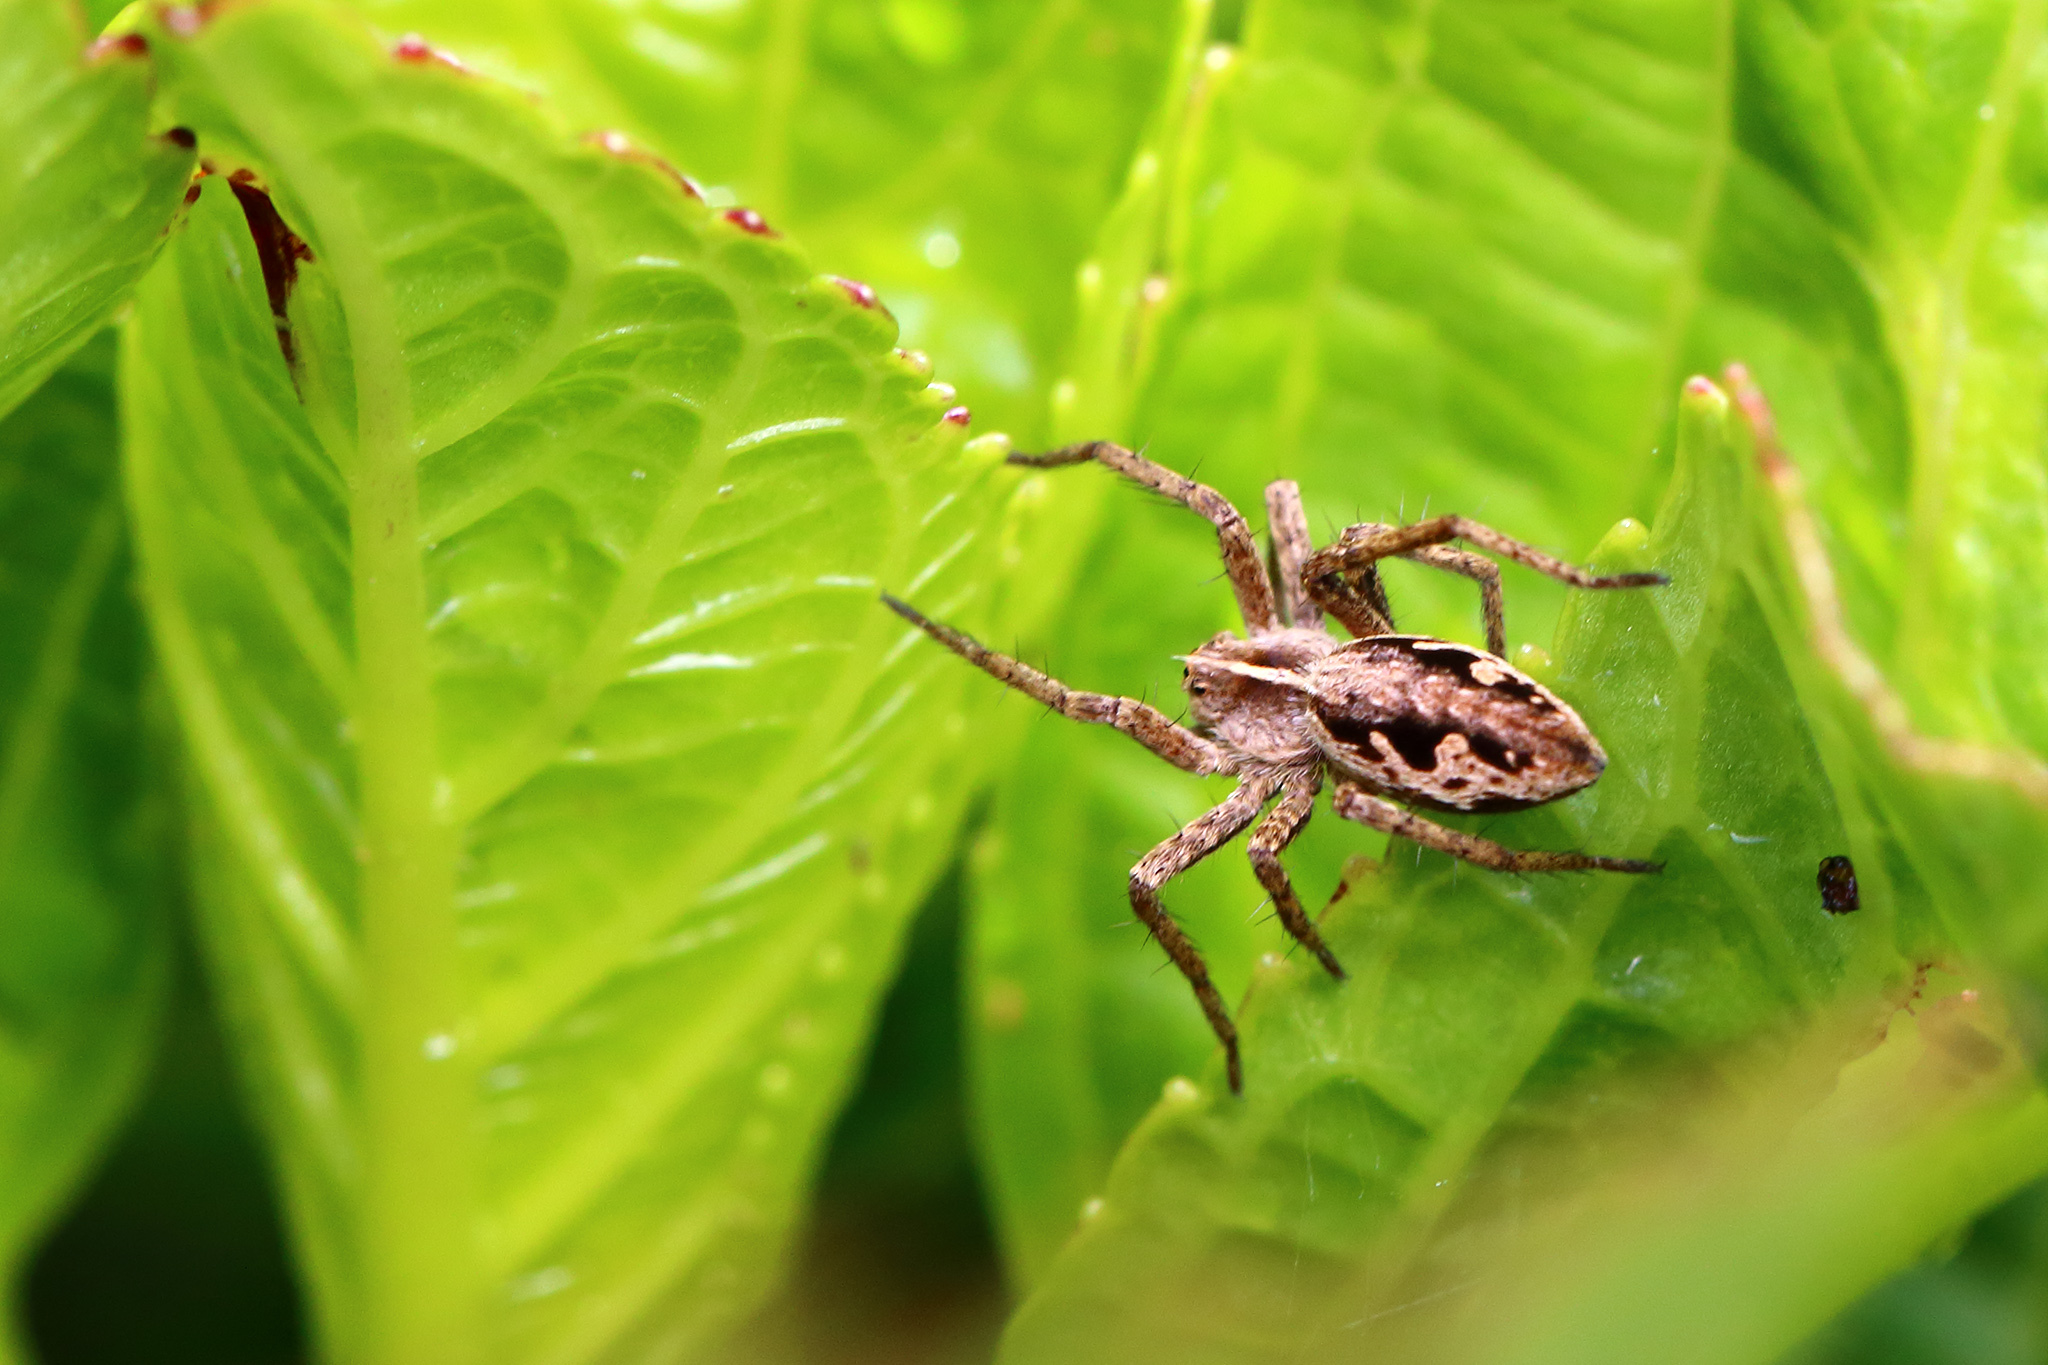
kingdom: Animalia
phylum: Arthropoda
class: Arachnida
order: Araneae
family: Pisauridae
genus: Pisaura
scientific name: Pisaura mirabilis
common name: Tent spider
